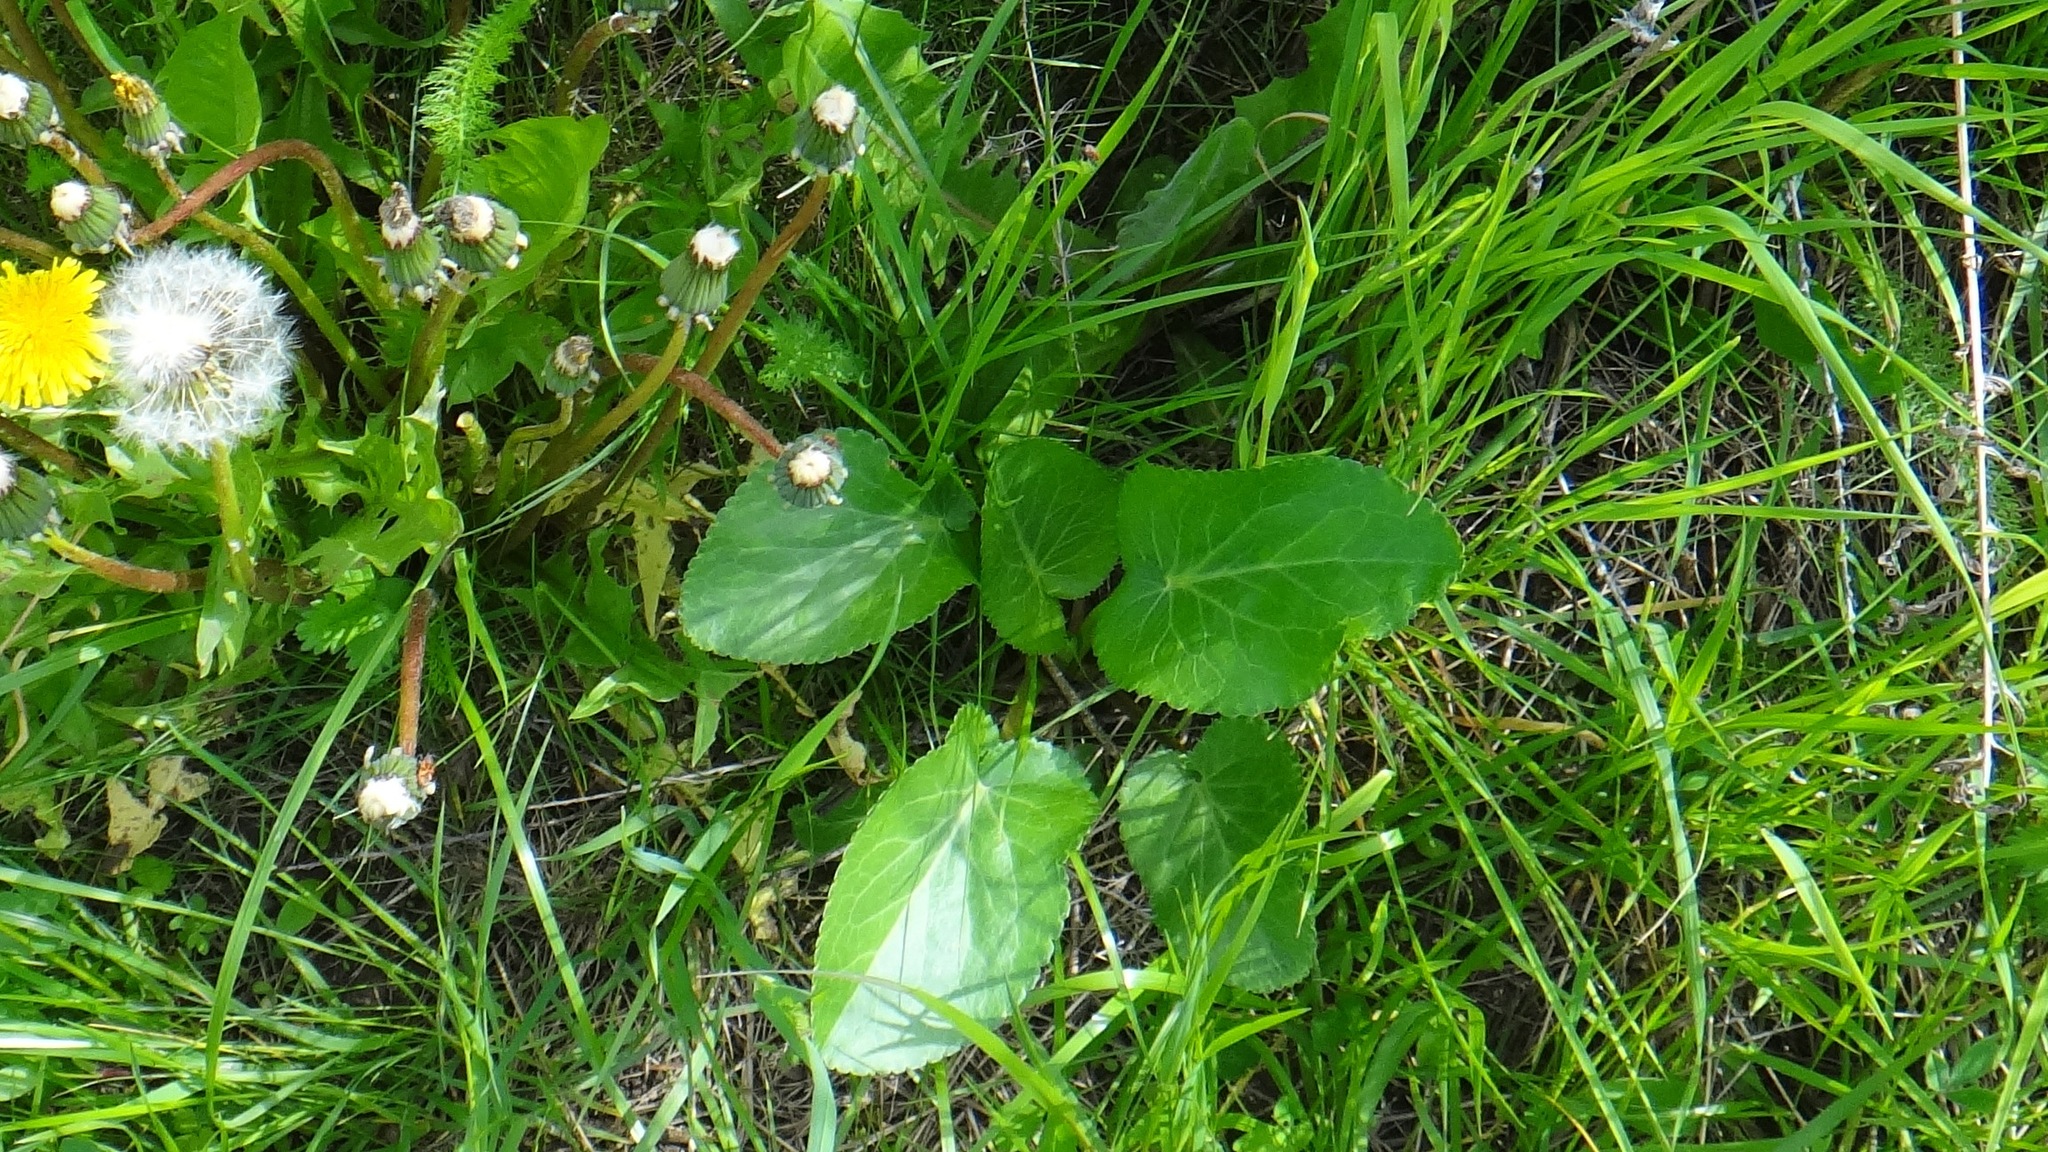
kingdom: Plantae
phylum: Tracheophyta
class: Magnoliopsida
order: Apiales
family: Apiaceae
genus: Eryngium
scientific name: Eryngium planum
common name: Blue eryngo
